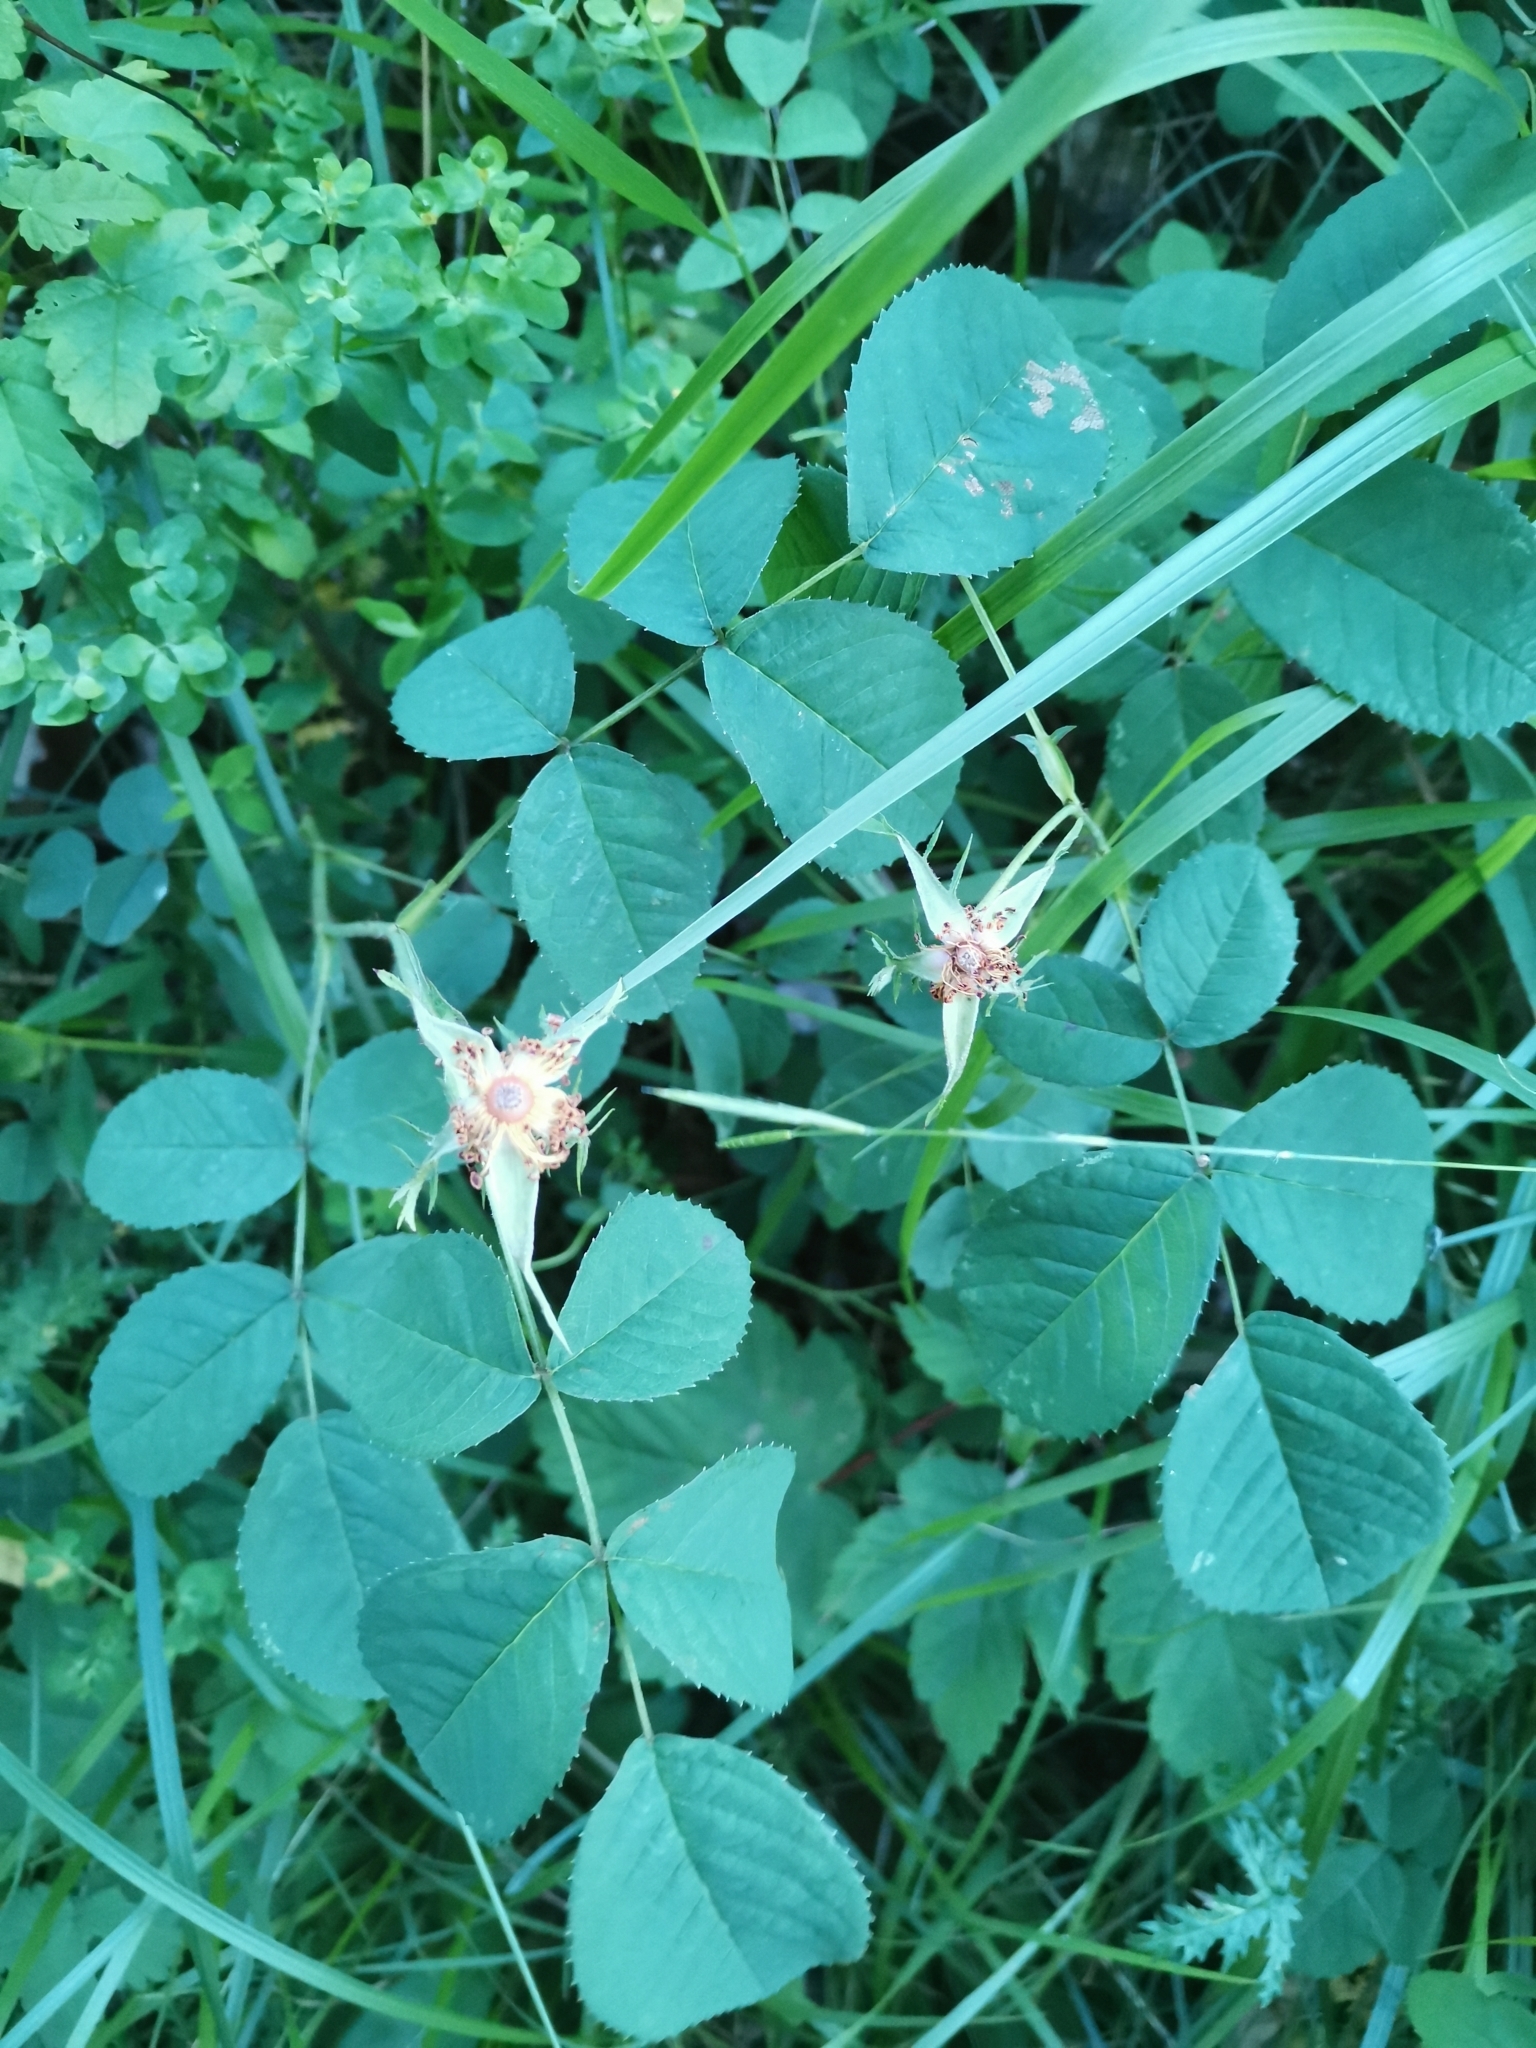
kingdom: Plantae
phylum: Tracheophyta
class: Magnoliopsida
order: Rosales
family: Rosaceae
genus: Rosa
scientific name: Rosa gallica
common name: French rose
